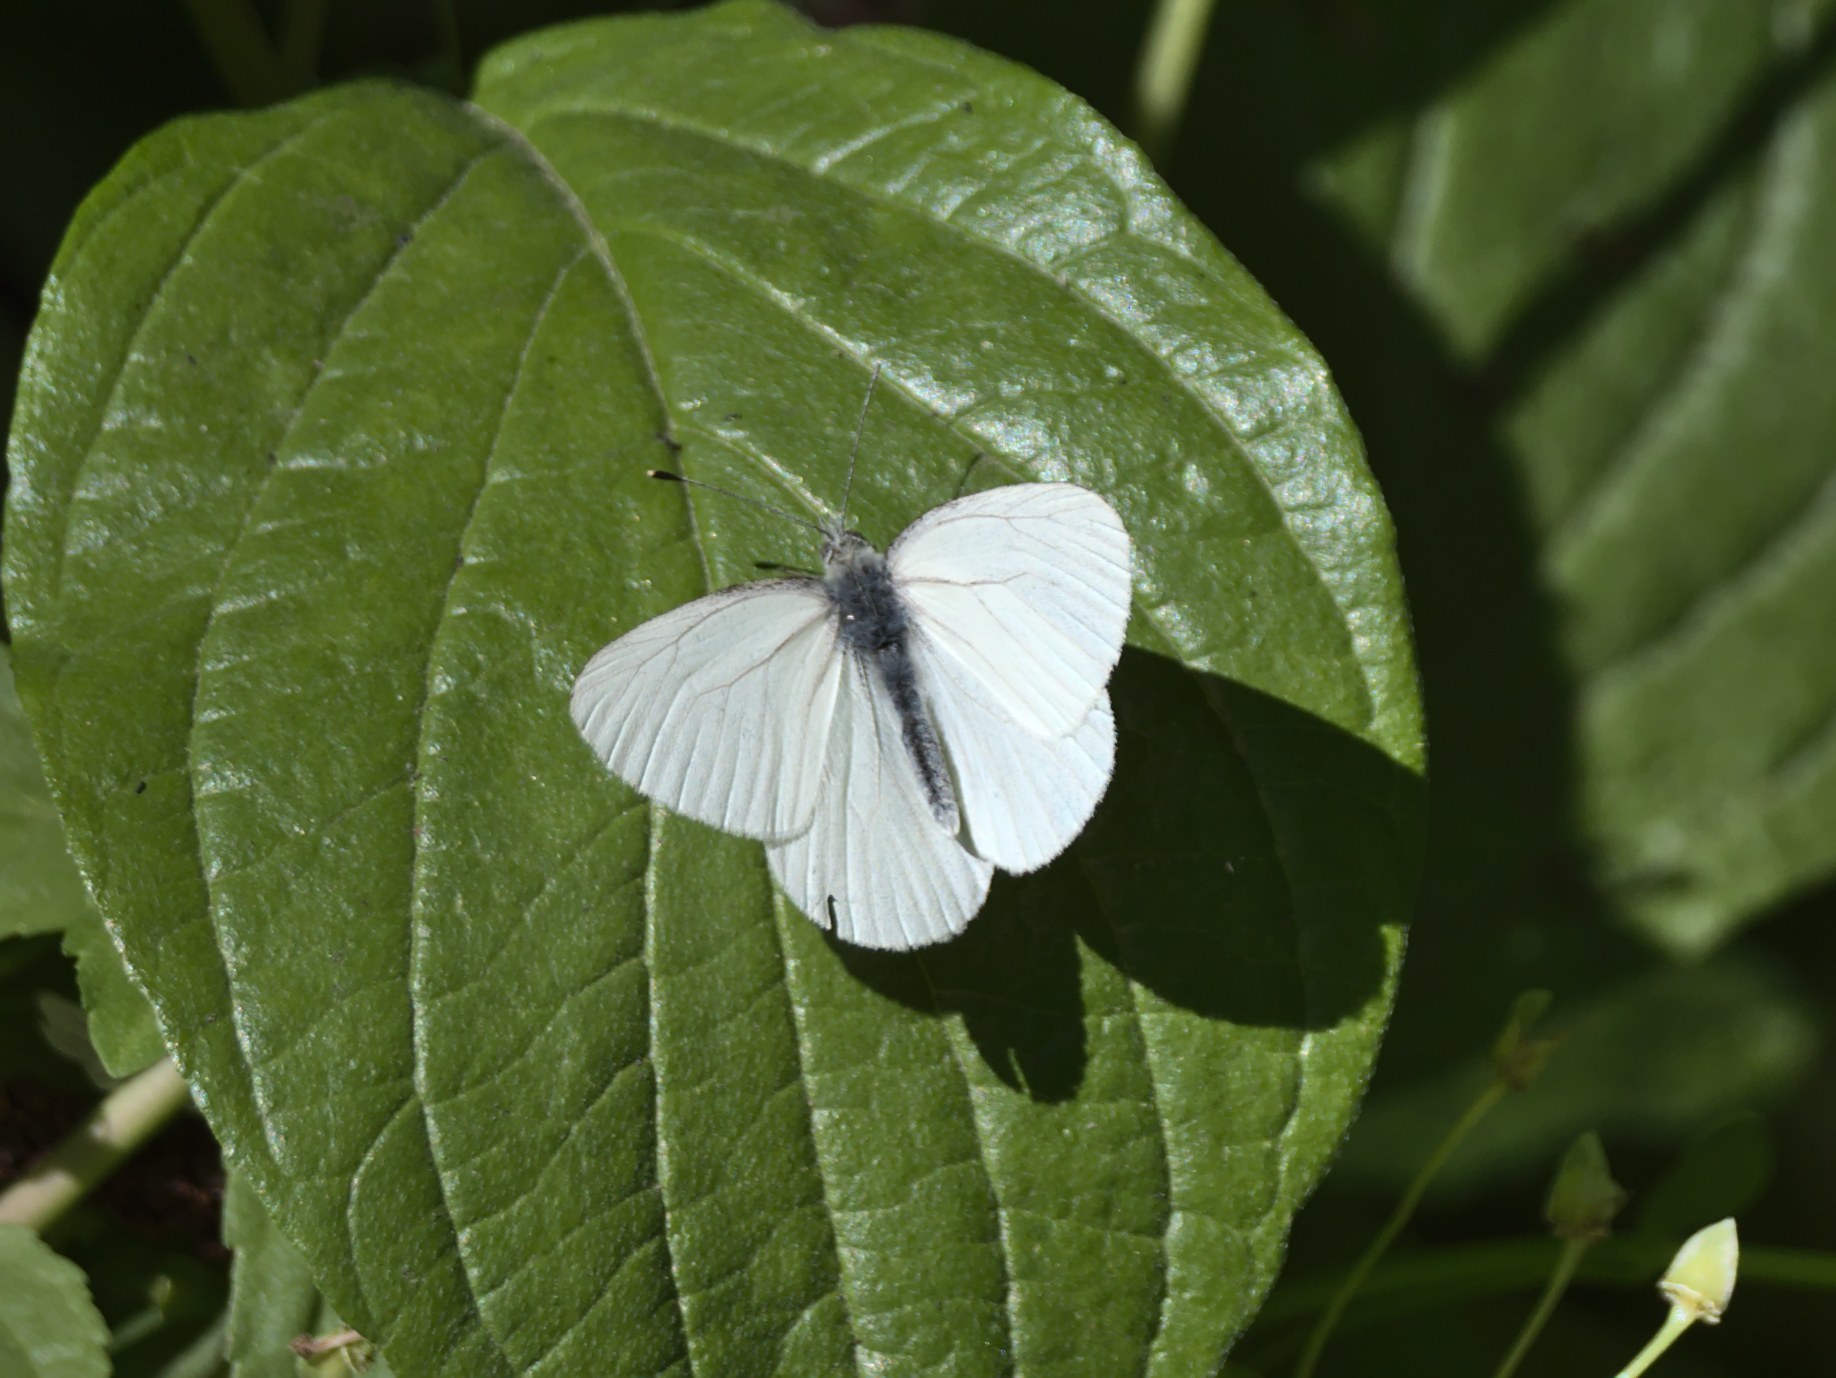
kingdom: Animalia
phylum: Arthropoda
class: Insecta
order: Lepidoptera
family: Pieridae
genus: Pieris
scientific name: Pieris marginalis
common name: Margined white
